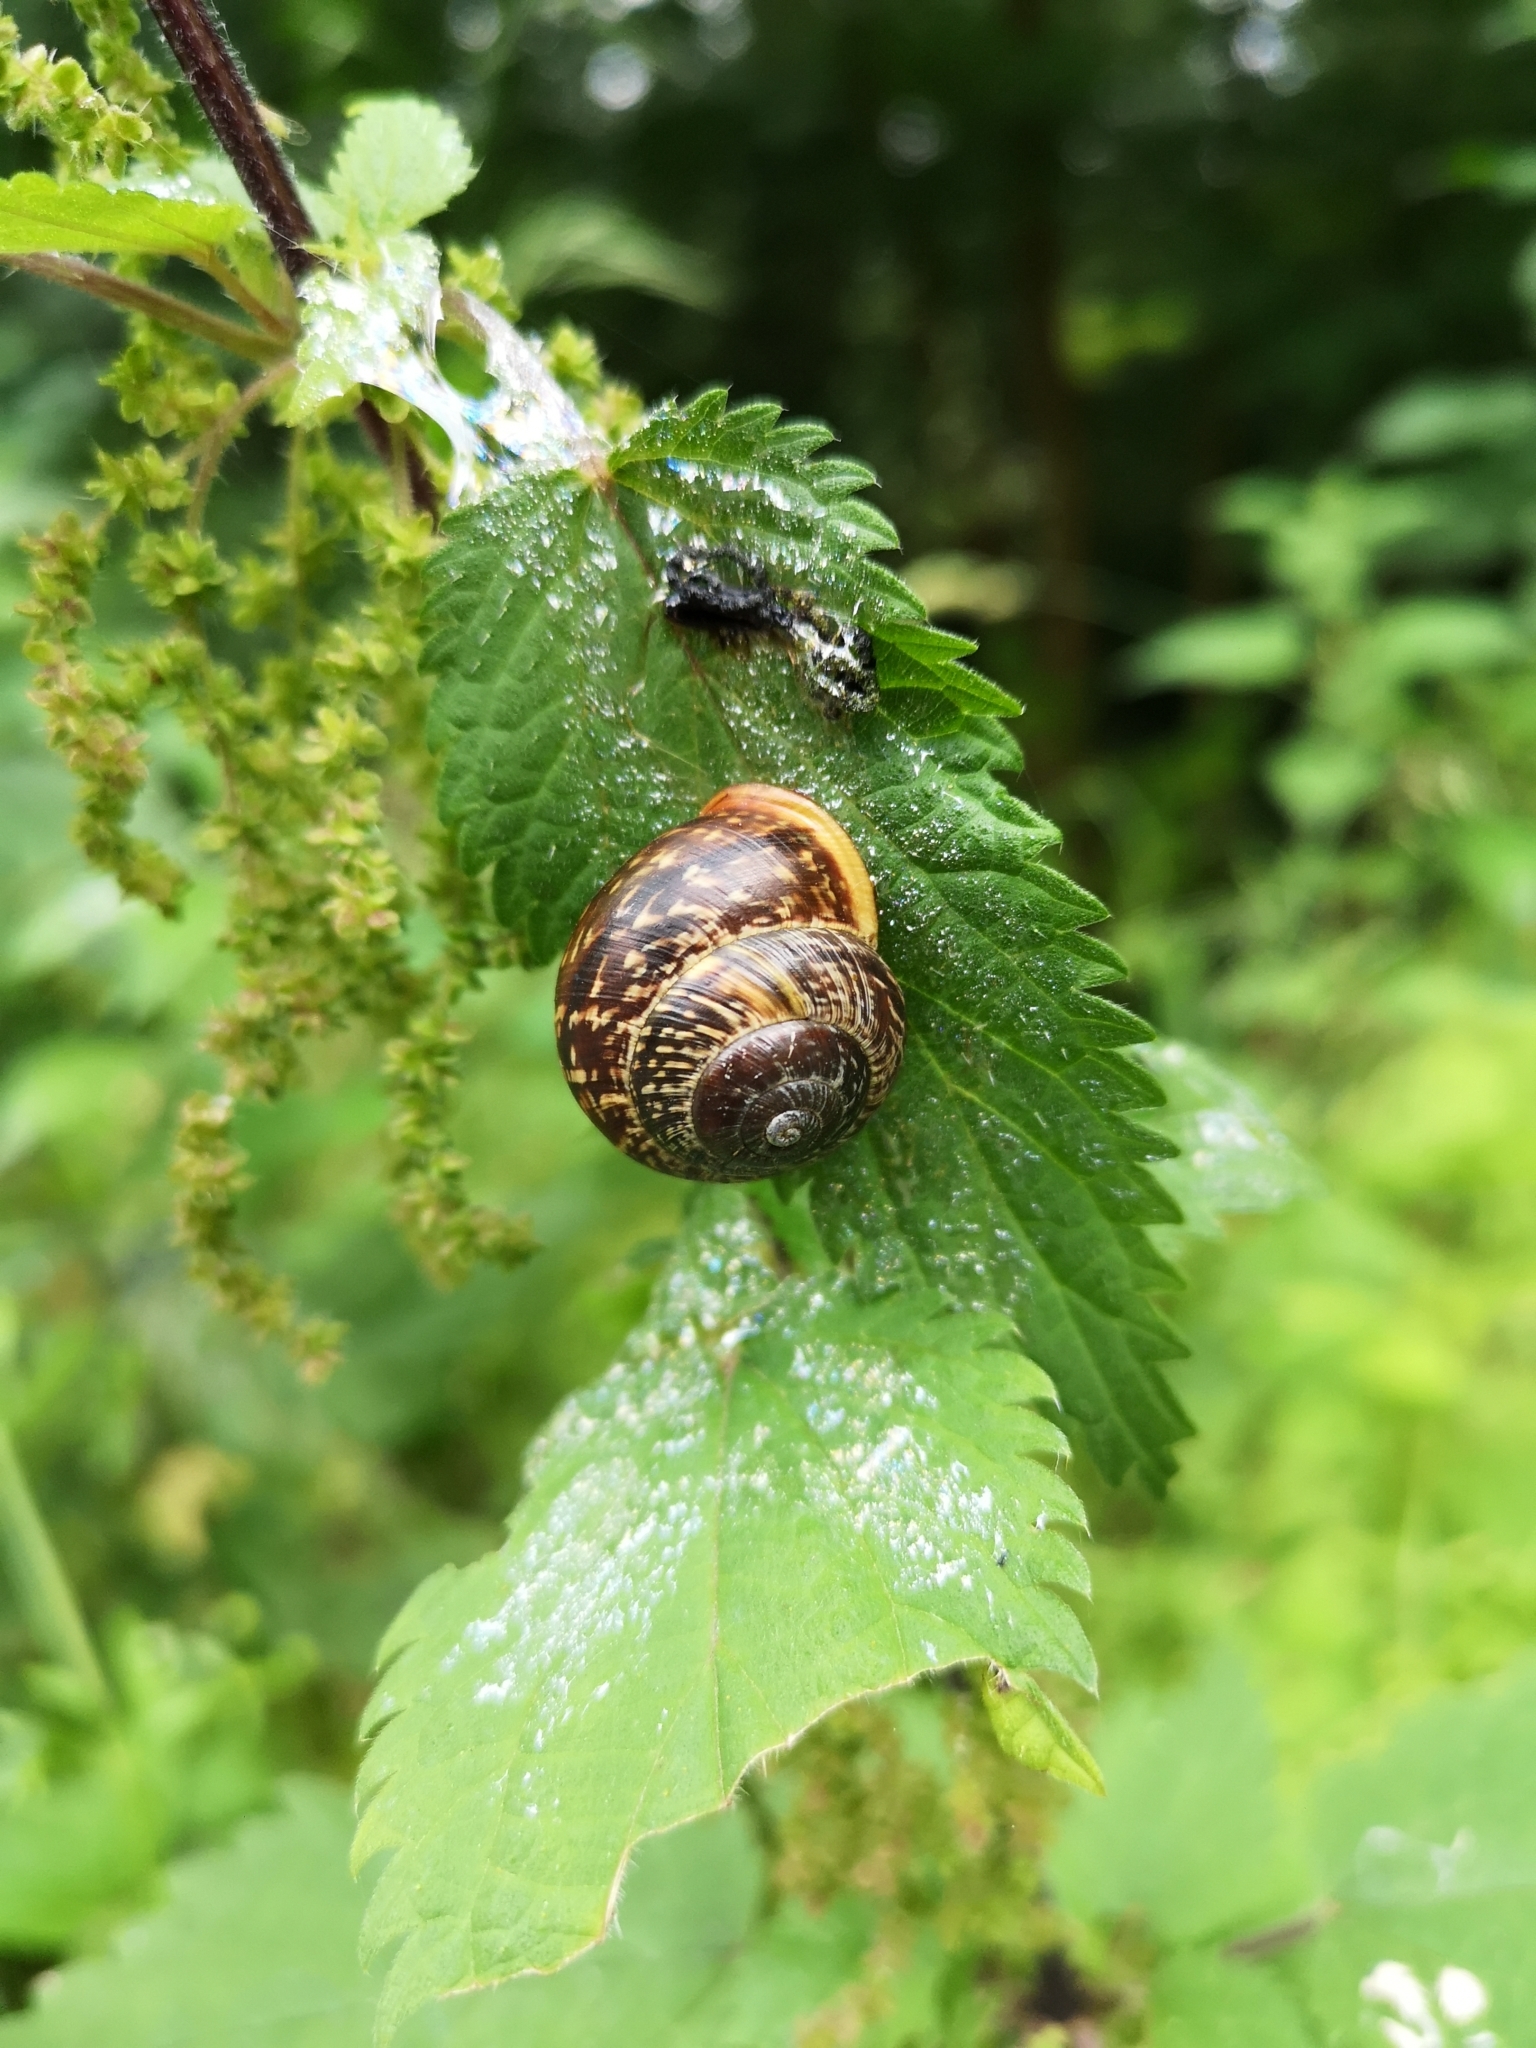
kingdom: Animalia
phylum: Mollusca
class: Gastropoda
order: Stylommatophora
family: Helicidae
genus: Arianta
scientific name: Arianta arbustorum
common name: Copse snail
